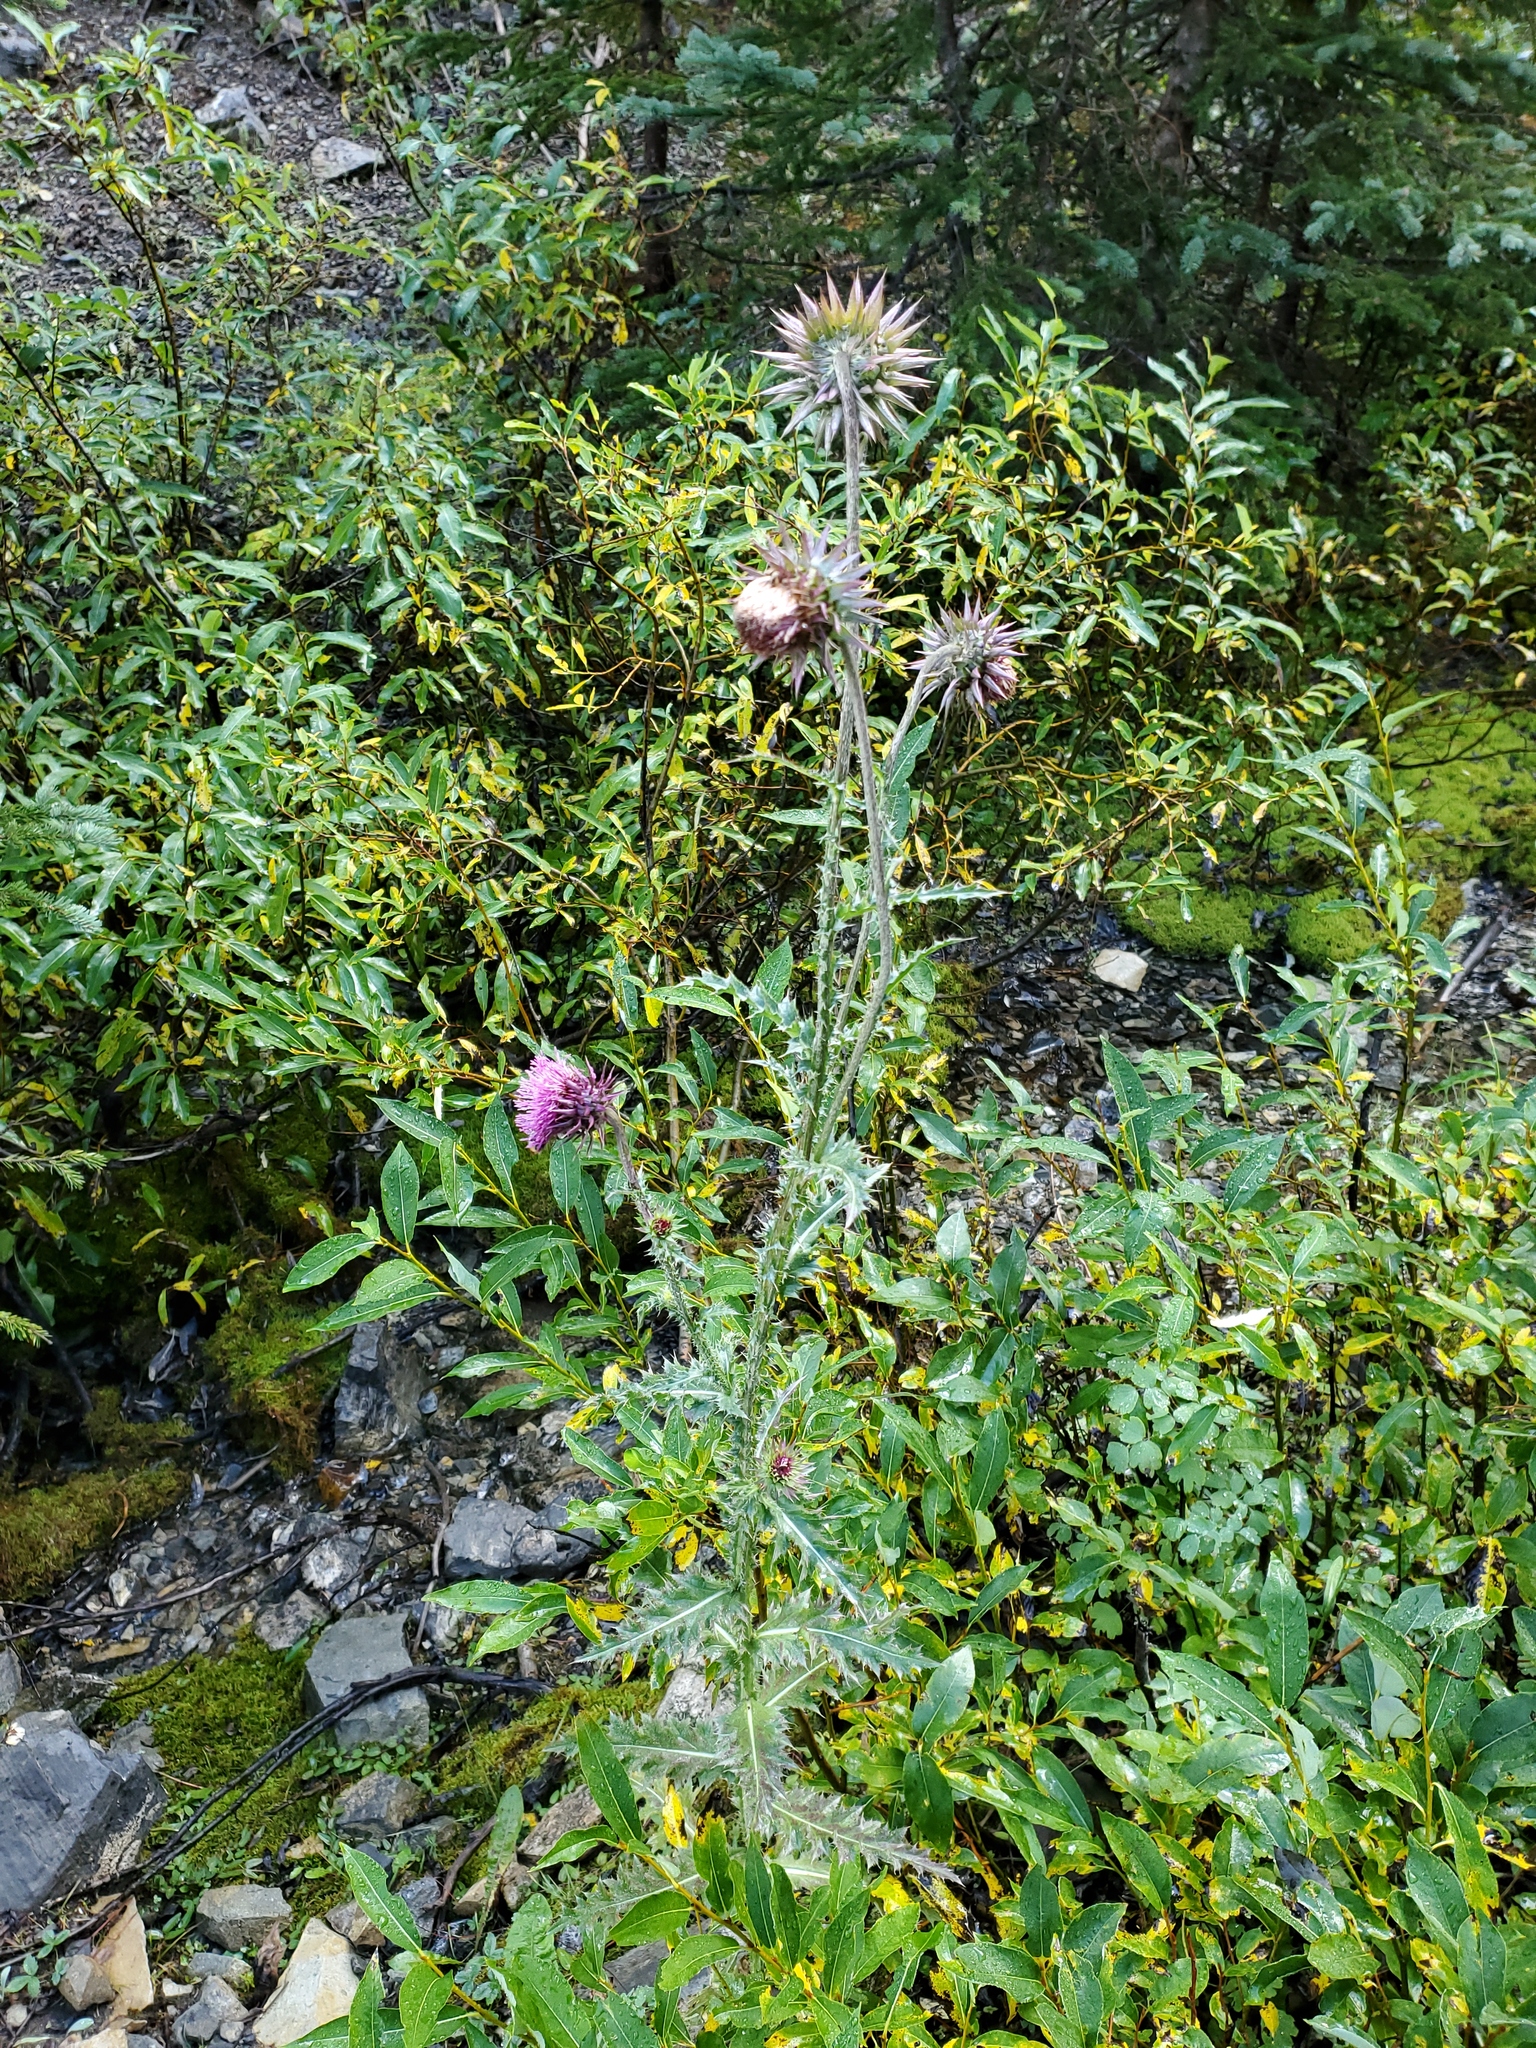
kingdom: Plantae
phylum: Tracheophyta
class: Magnoliopsida
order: Asterales
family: Asteraceae
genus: Carduus
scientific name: Carduus nutans
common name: Musk thistle
